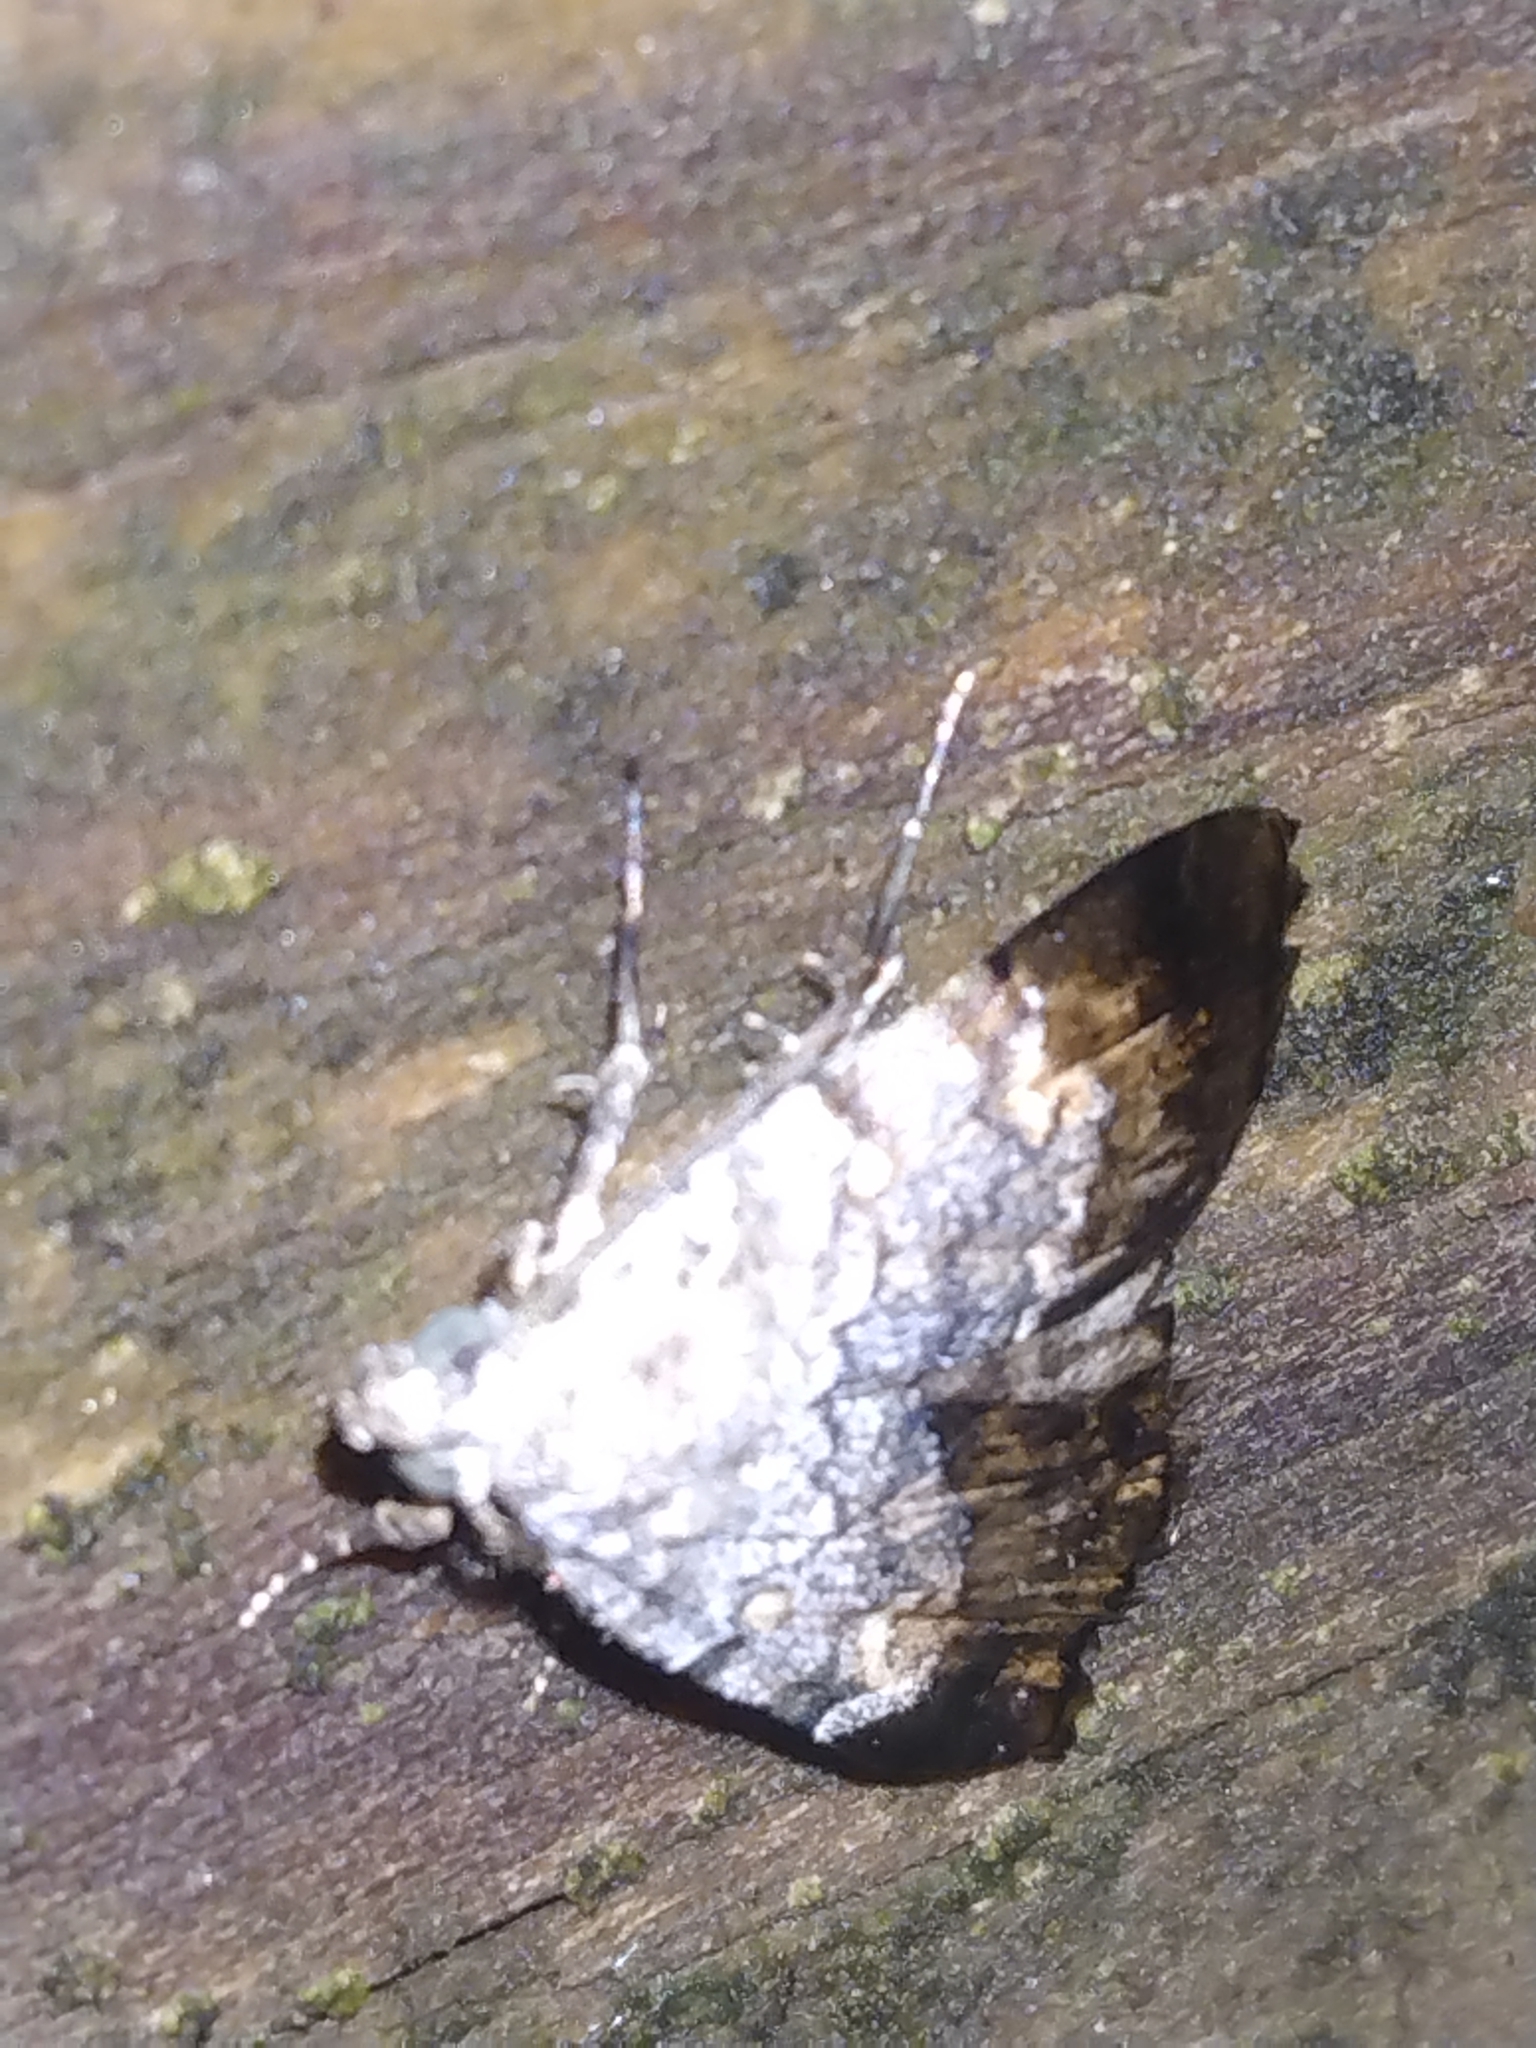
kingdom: Animalia
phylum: Arthropoda
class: Insecta
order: Lepidoptera
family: Erebidae
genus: Idia
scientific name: Idia americalis
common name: American idia moth
